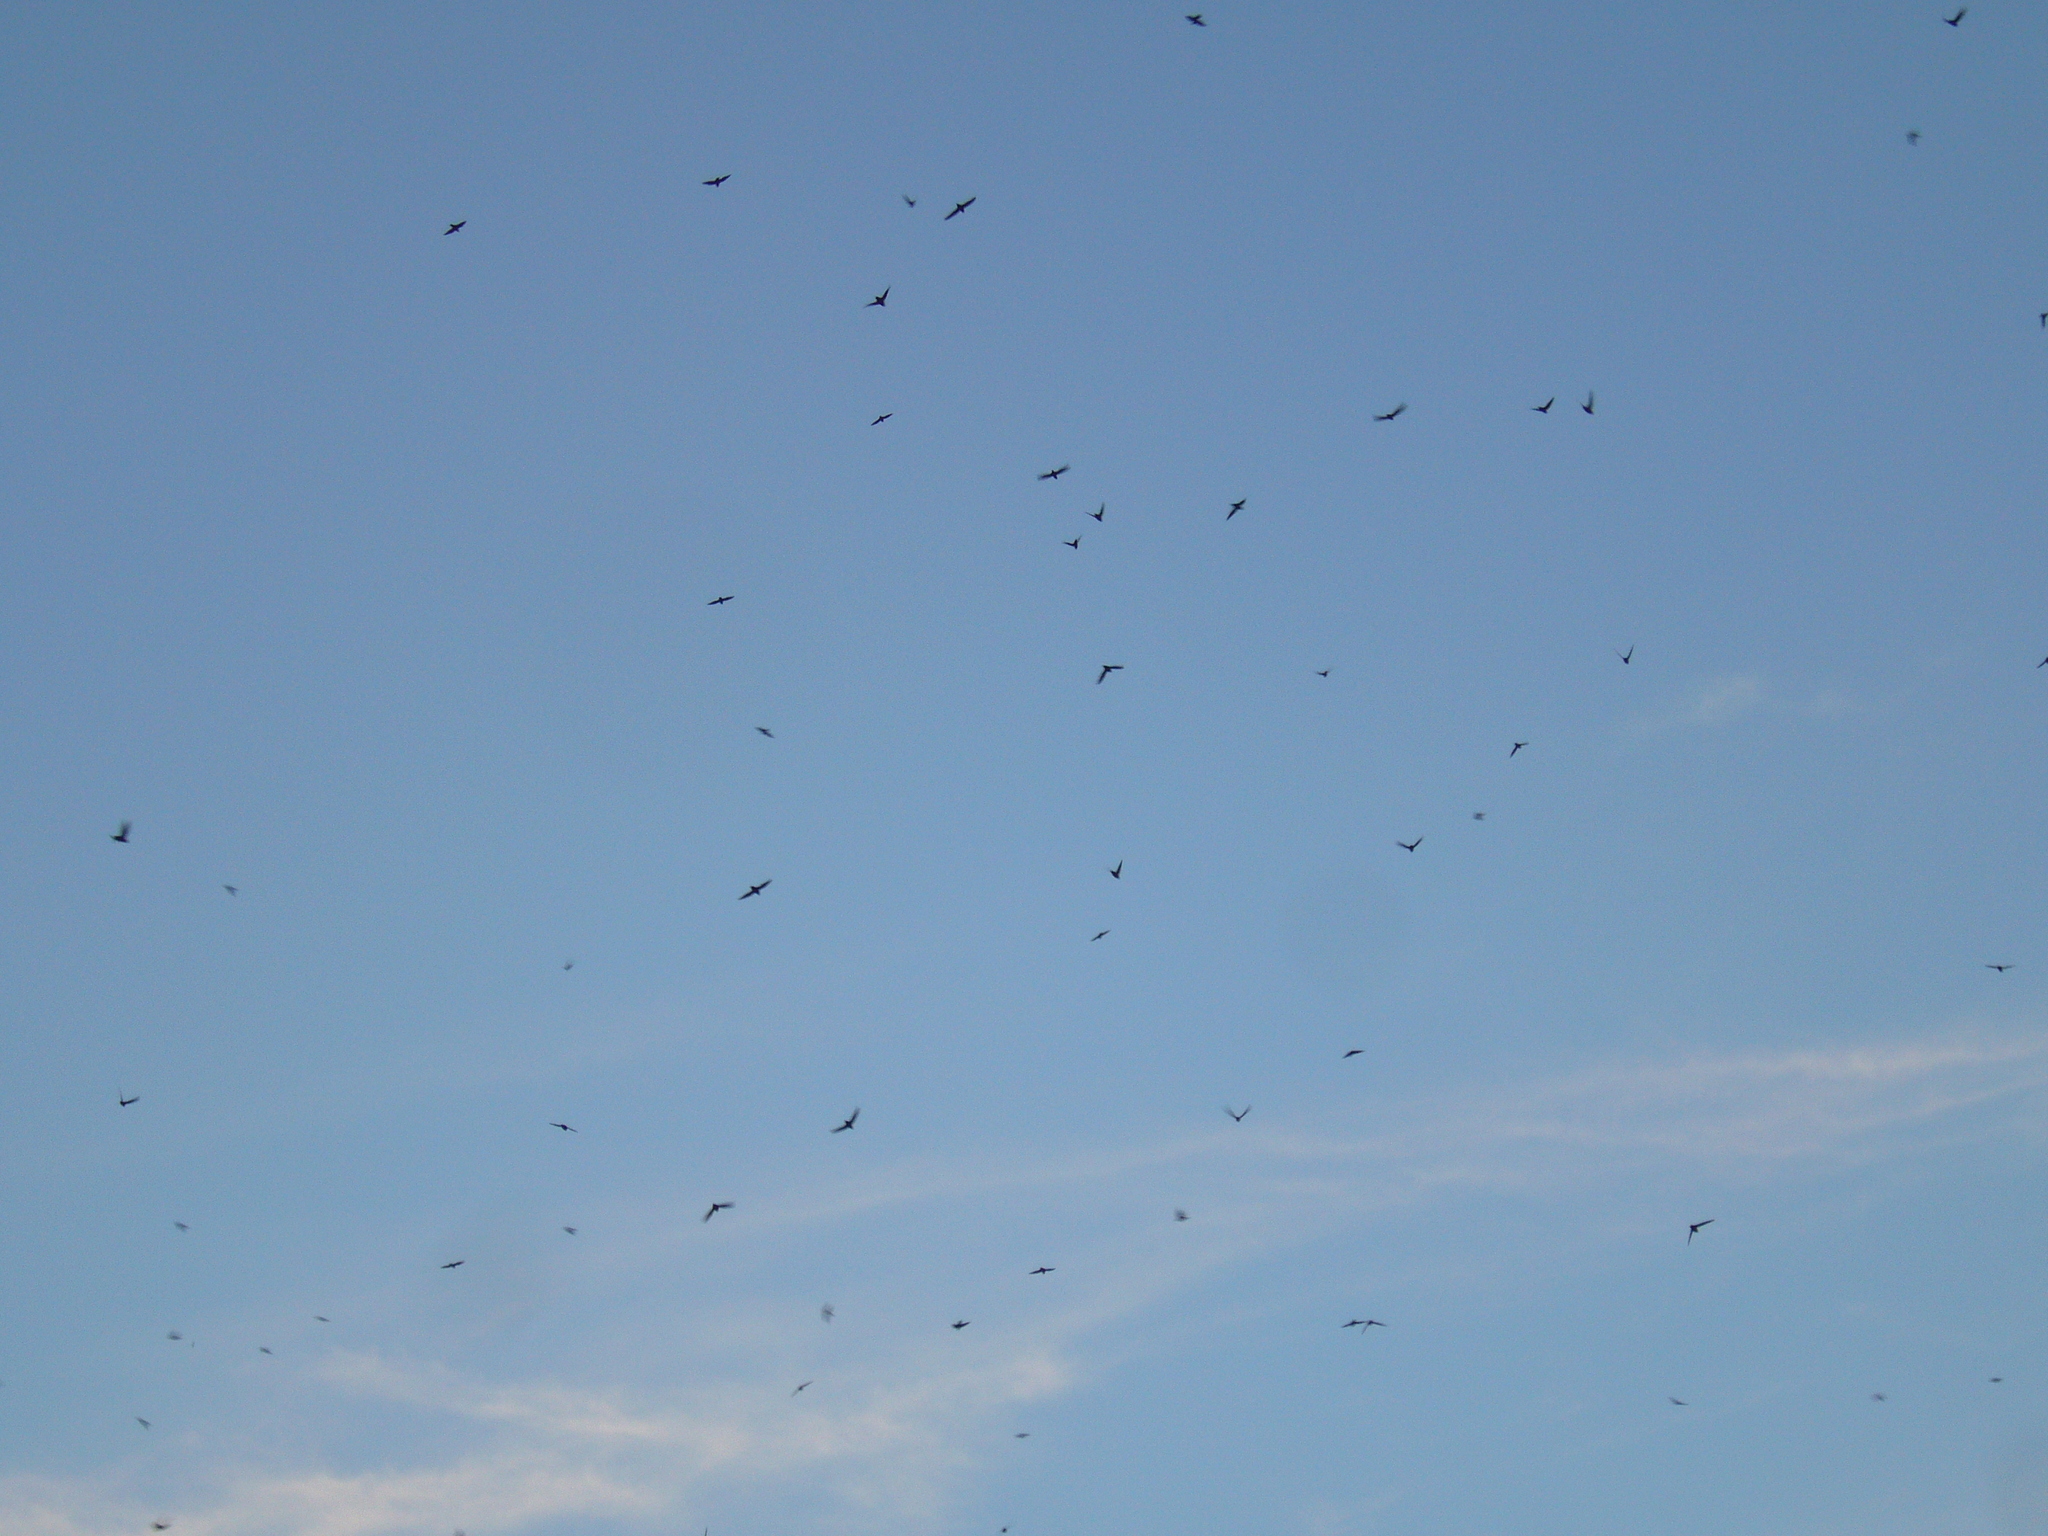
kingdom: Animalia
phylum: Chordata
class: Aves
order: Apodiformes
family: Apodidae
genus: Chaetura
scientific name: Chaetura pelagica
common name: Chimney swift
